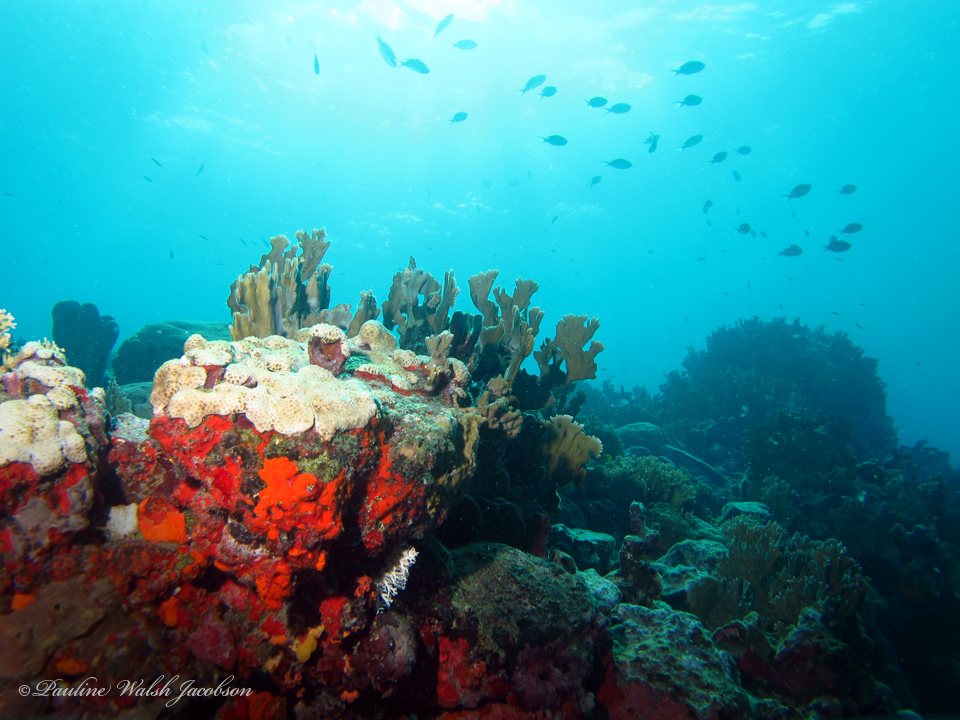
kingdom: Animalia
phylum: Cnidaria
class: Hydrozoa
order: Anthoathecata
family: Milleporidae
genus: Millepora
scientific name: Millepora alcicornis
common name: Branching fire coral
